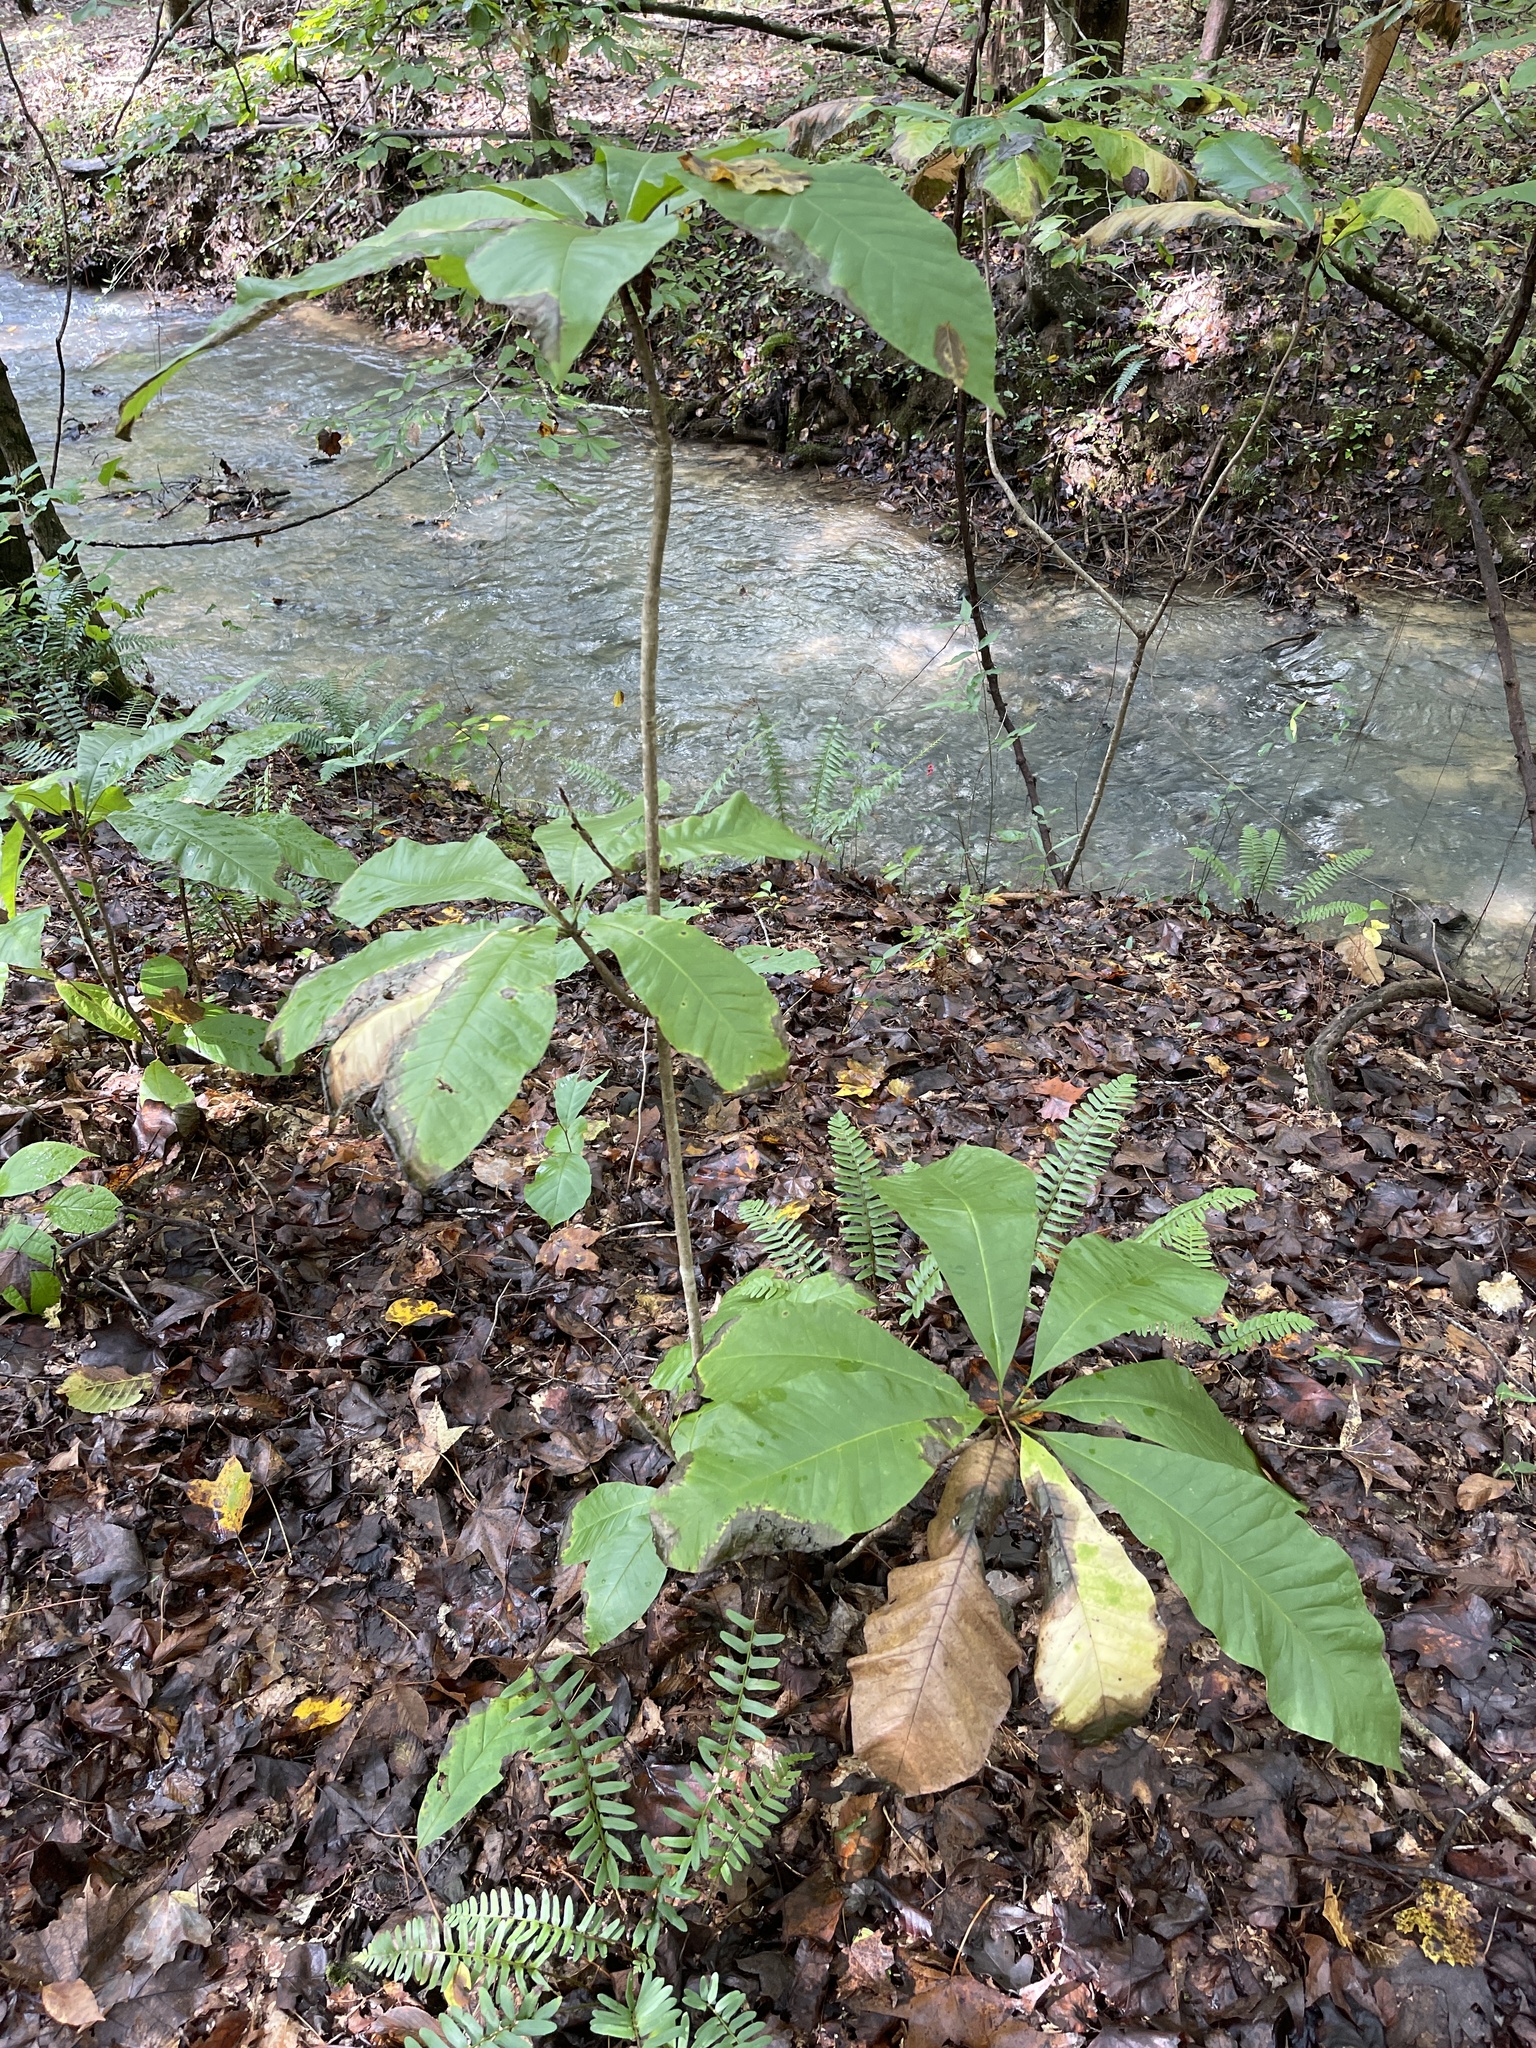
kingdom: Plantae
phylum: Tracheophyta
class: Magnoliopsida
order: Magnoliales
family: Magnoliaceae
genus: Magnolia
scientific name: Magnolia tripetala
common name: Umbrella magnolia
